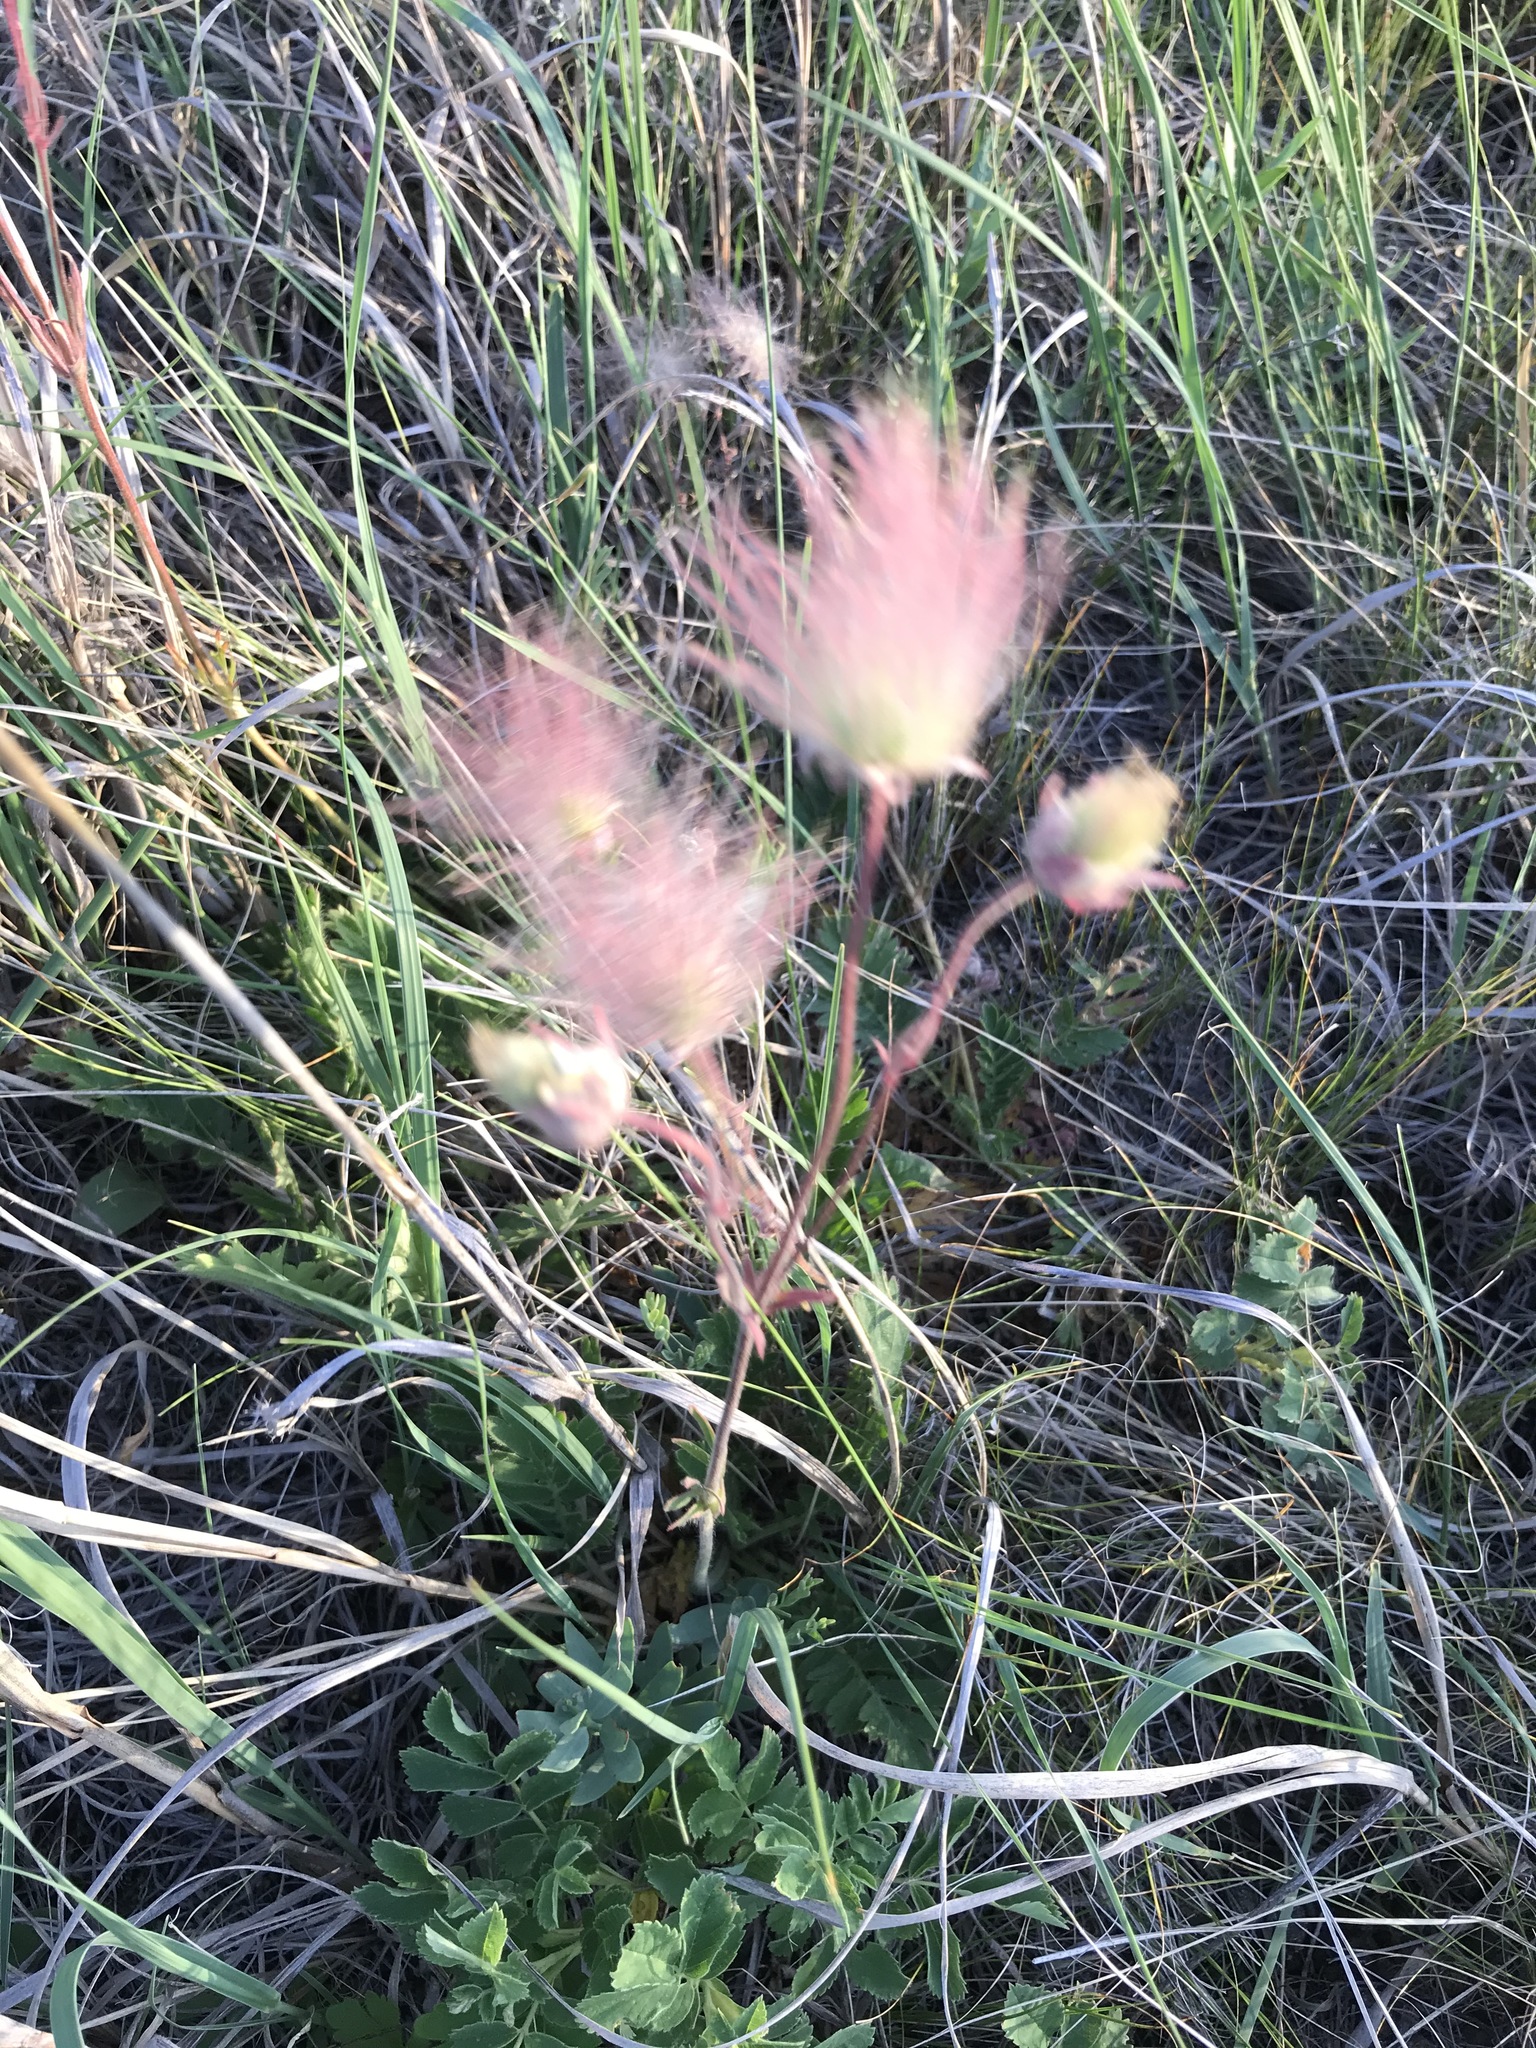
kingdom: Plantae
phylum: Tracheophyta
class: Magnoliopsida
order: Rosales
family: Rosaceae
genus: Geum
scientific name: Geum triflorum
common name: Old man's whiskers
